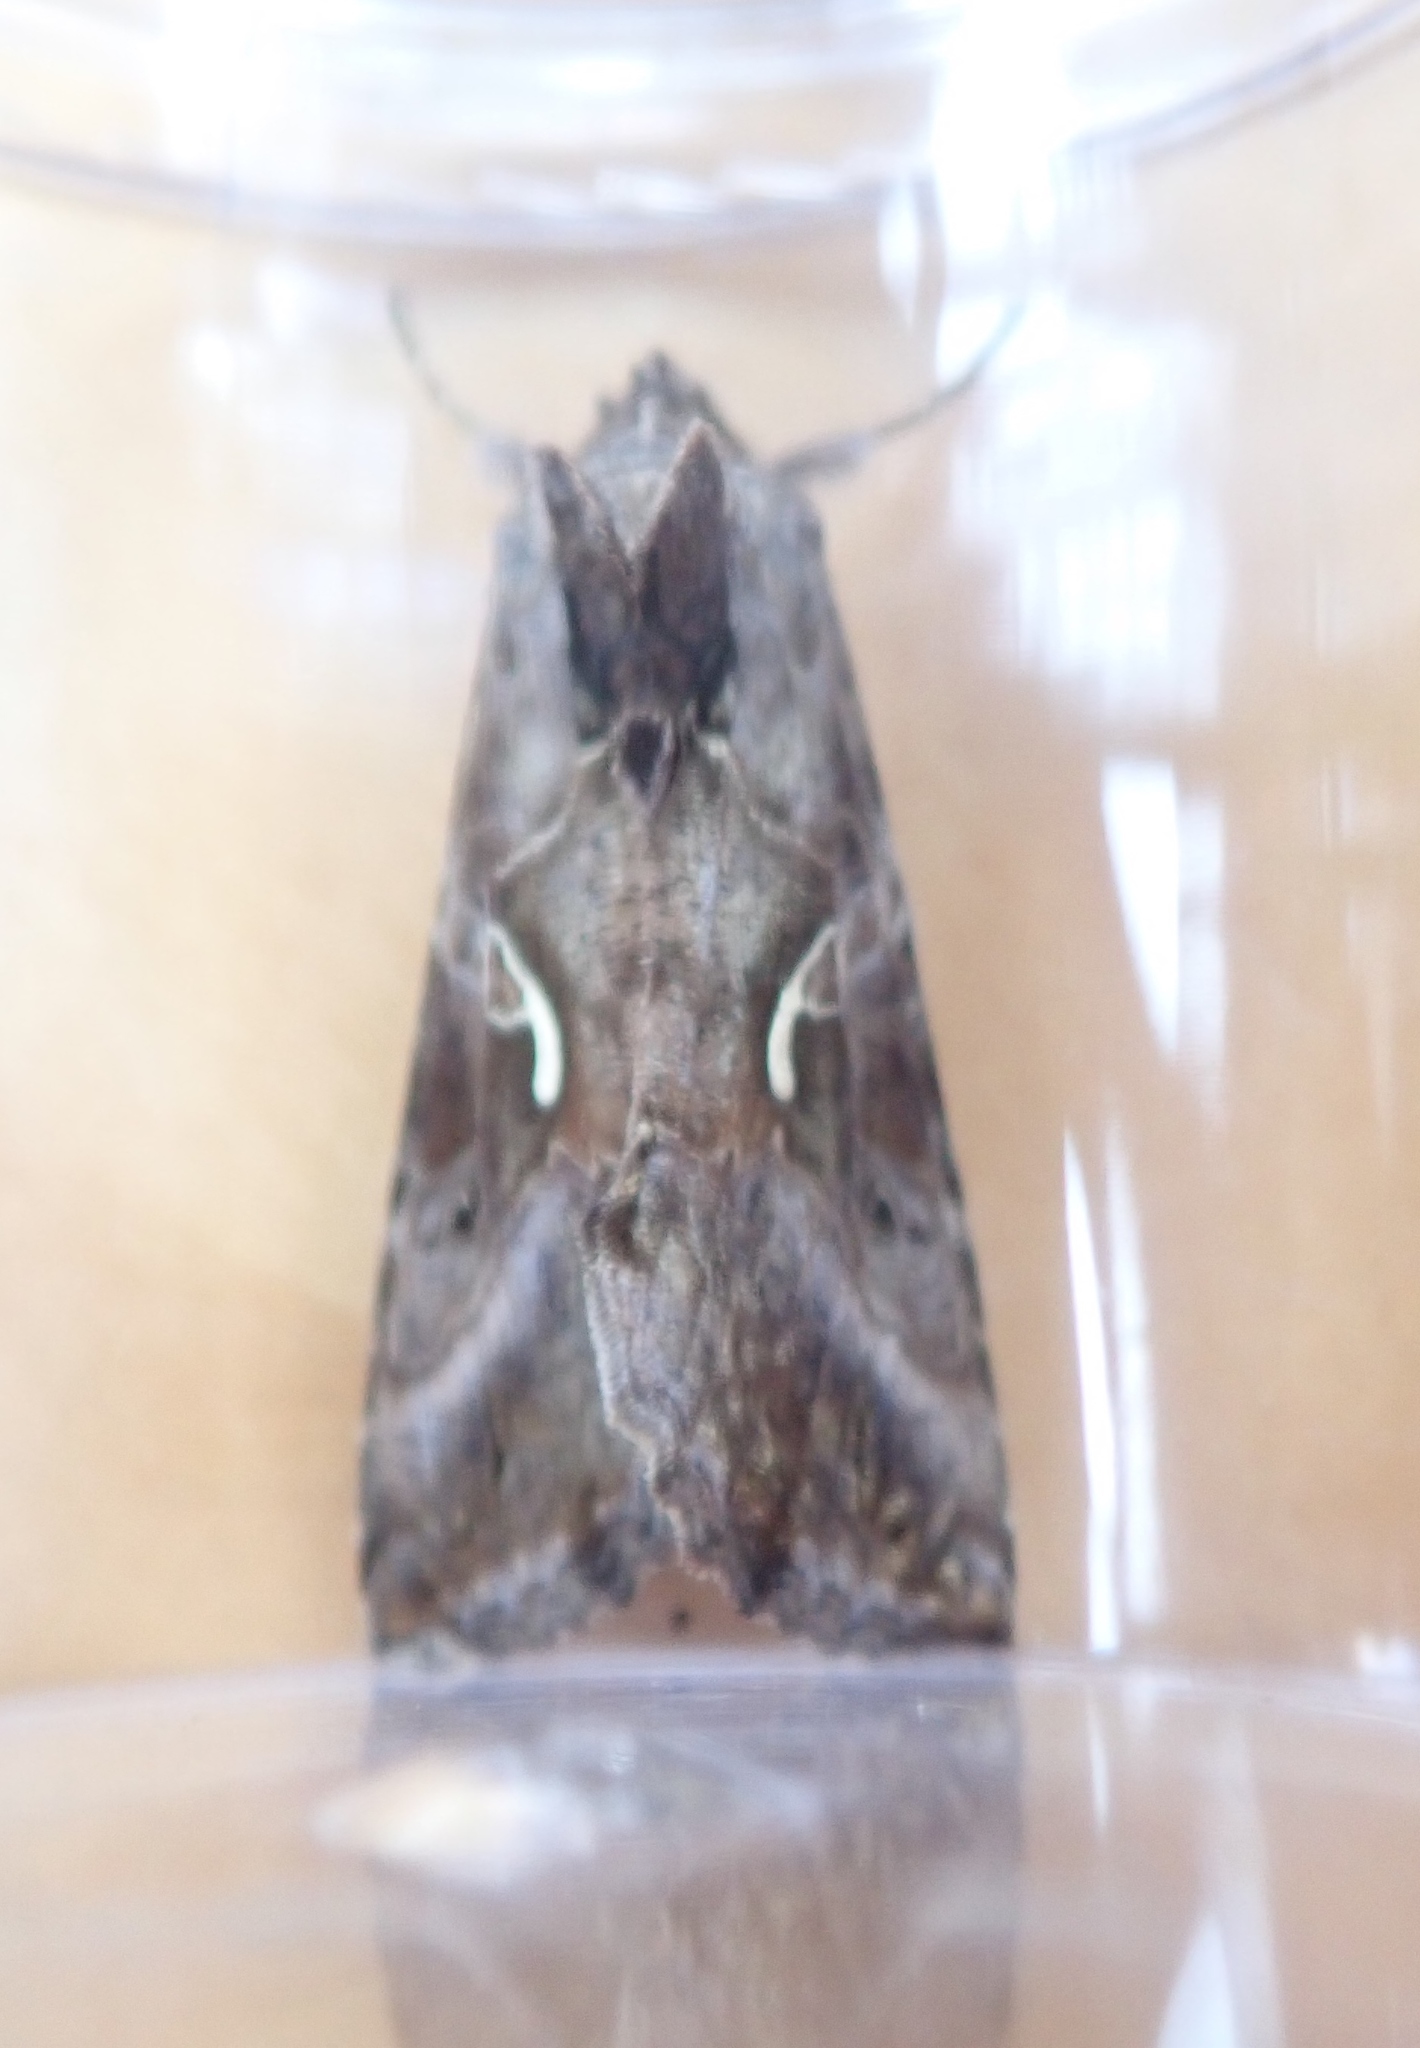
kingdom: Animalia
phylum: Arthropoda
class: Insecta
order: Lepidoptera
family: Noctuidae
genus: Autographa
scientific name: Autographa gamma
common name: Silver y
